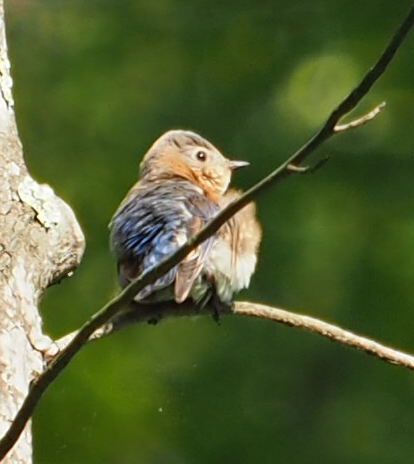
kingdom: Animalia
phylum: Chordata
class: Aves
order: Passeriformes
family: Turdidae
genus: Sialia
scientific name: Sialia sialis
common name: Eastern bluebird
